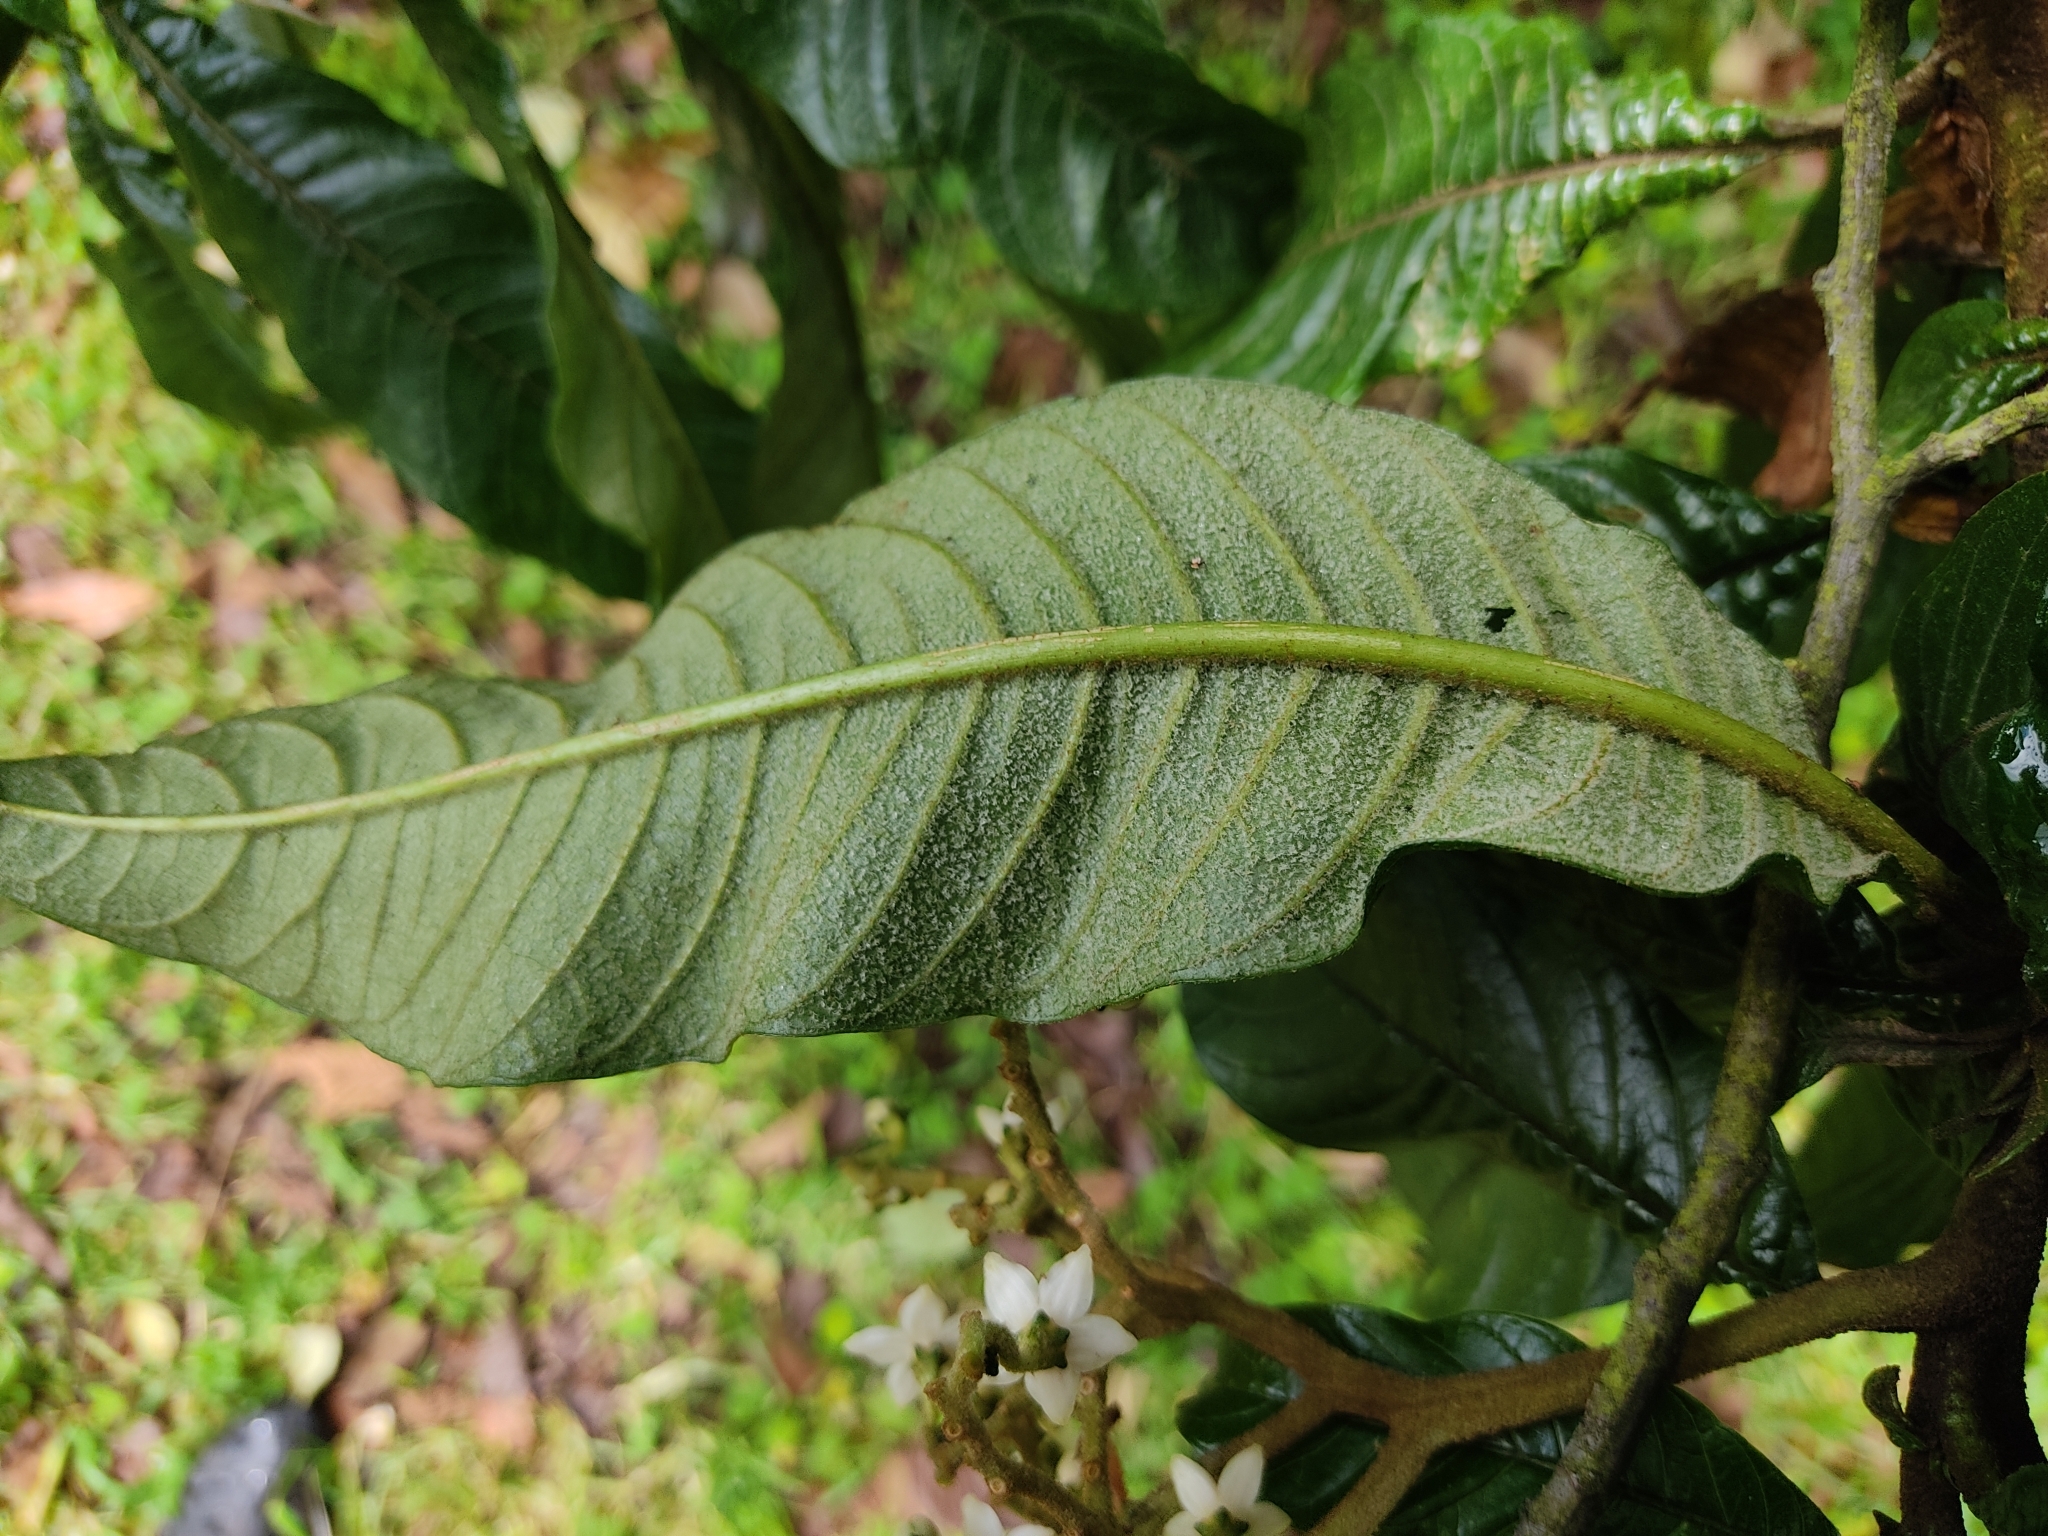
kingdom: Plantae
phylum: Tracheophyta
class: Magnoliopsida
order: Solanales
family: Solanaceae
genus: Solanum
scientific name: Solanum oblongifolium
